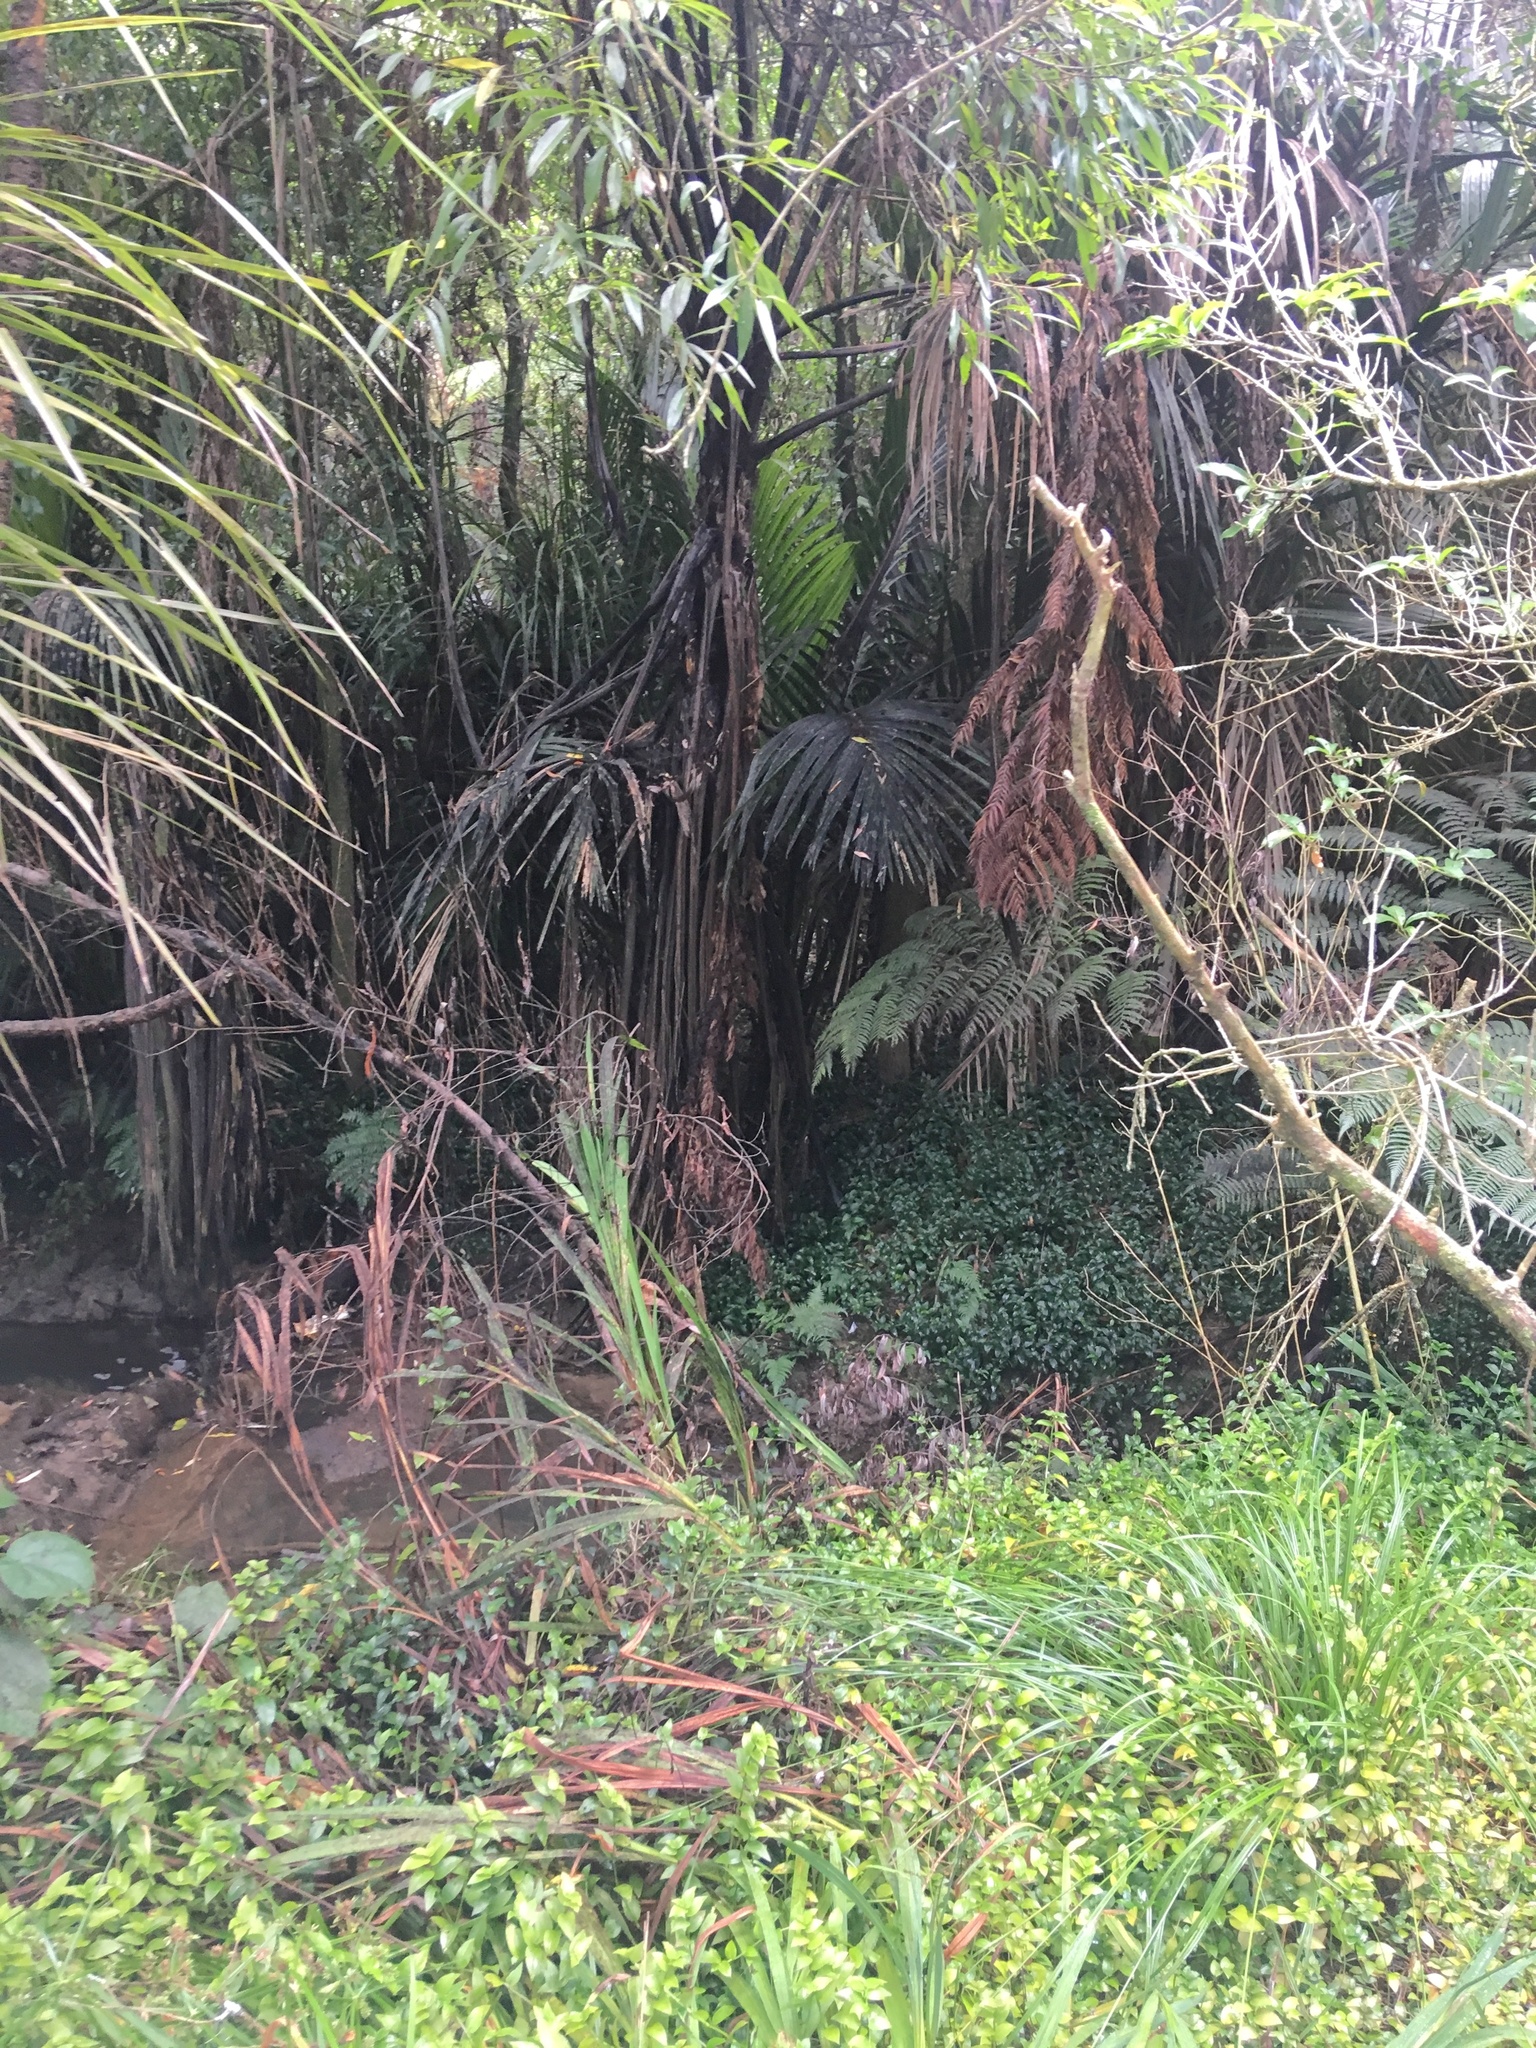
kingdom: Plantae
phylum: Tracheophyta
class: Liliopsida
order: Asparagales
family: Iridaceae
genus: Crocosmia
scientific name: Crocosmia crocosmiiflora
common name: Montbretia
